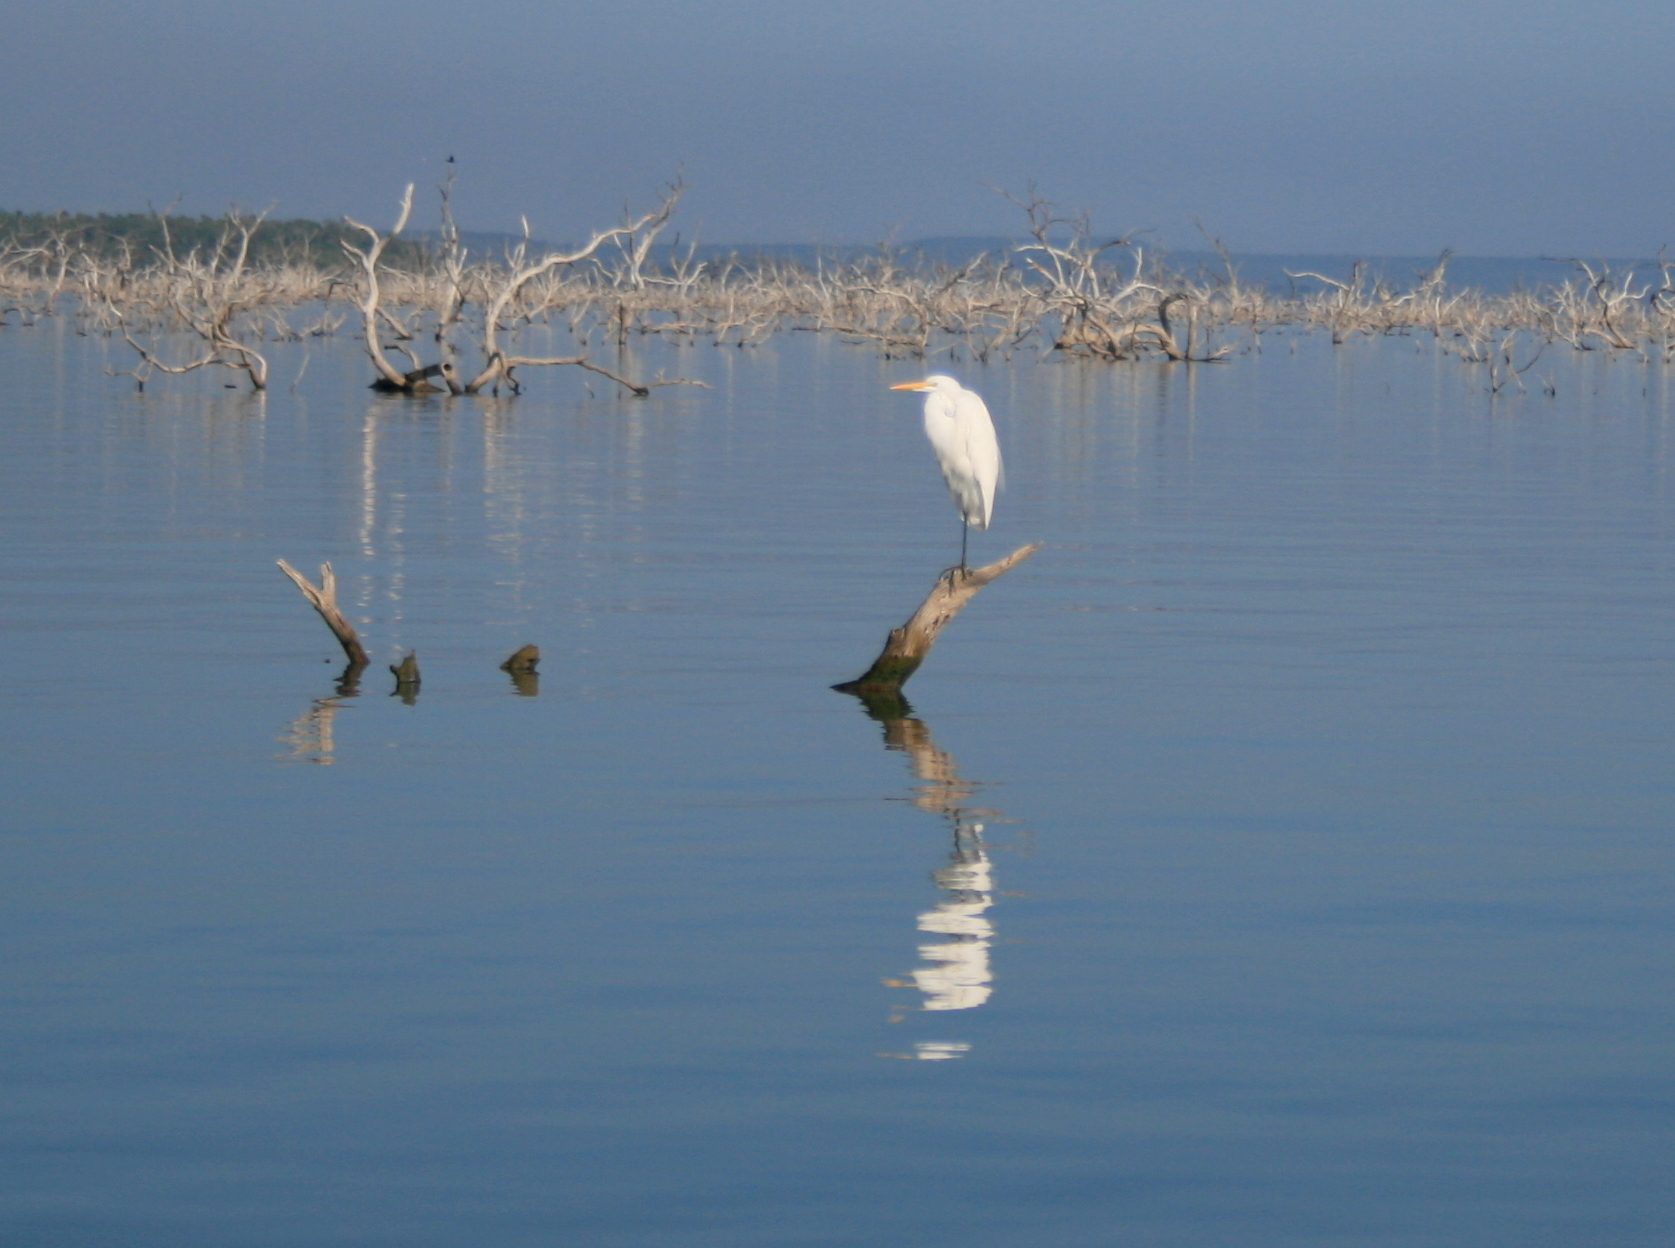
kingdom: Animalia
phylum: Chordata
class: Aves
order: Pelecaniformes
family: Ardeidae
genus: Ardea
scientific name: Ardea alba
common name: Great egret
